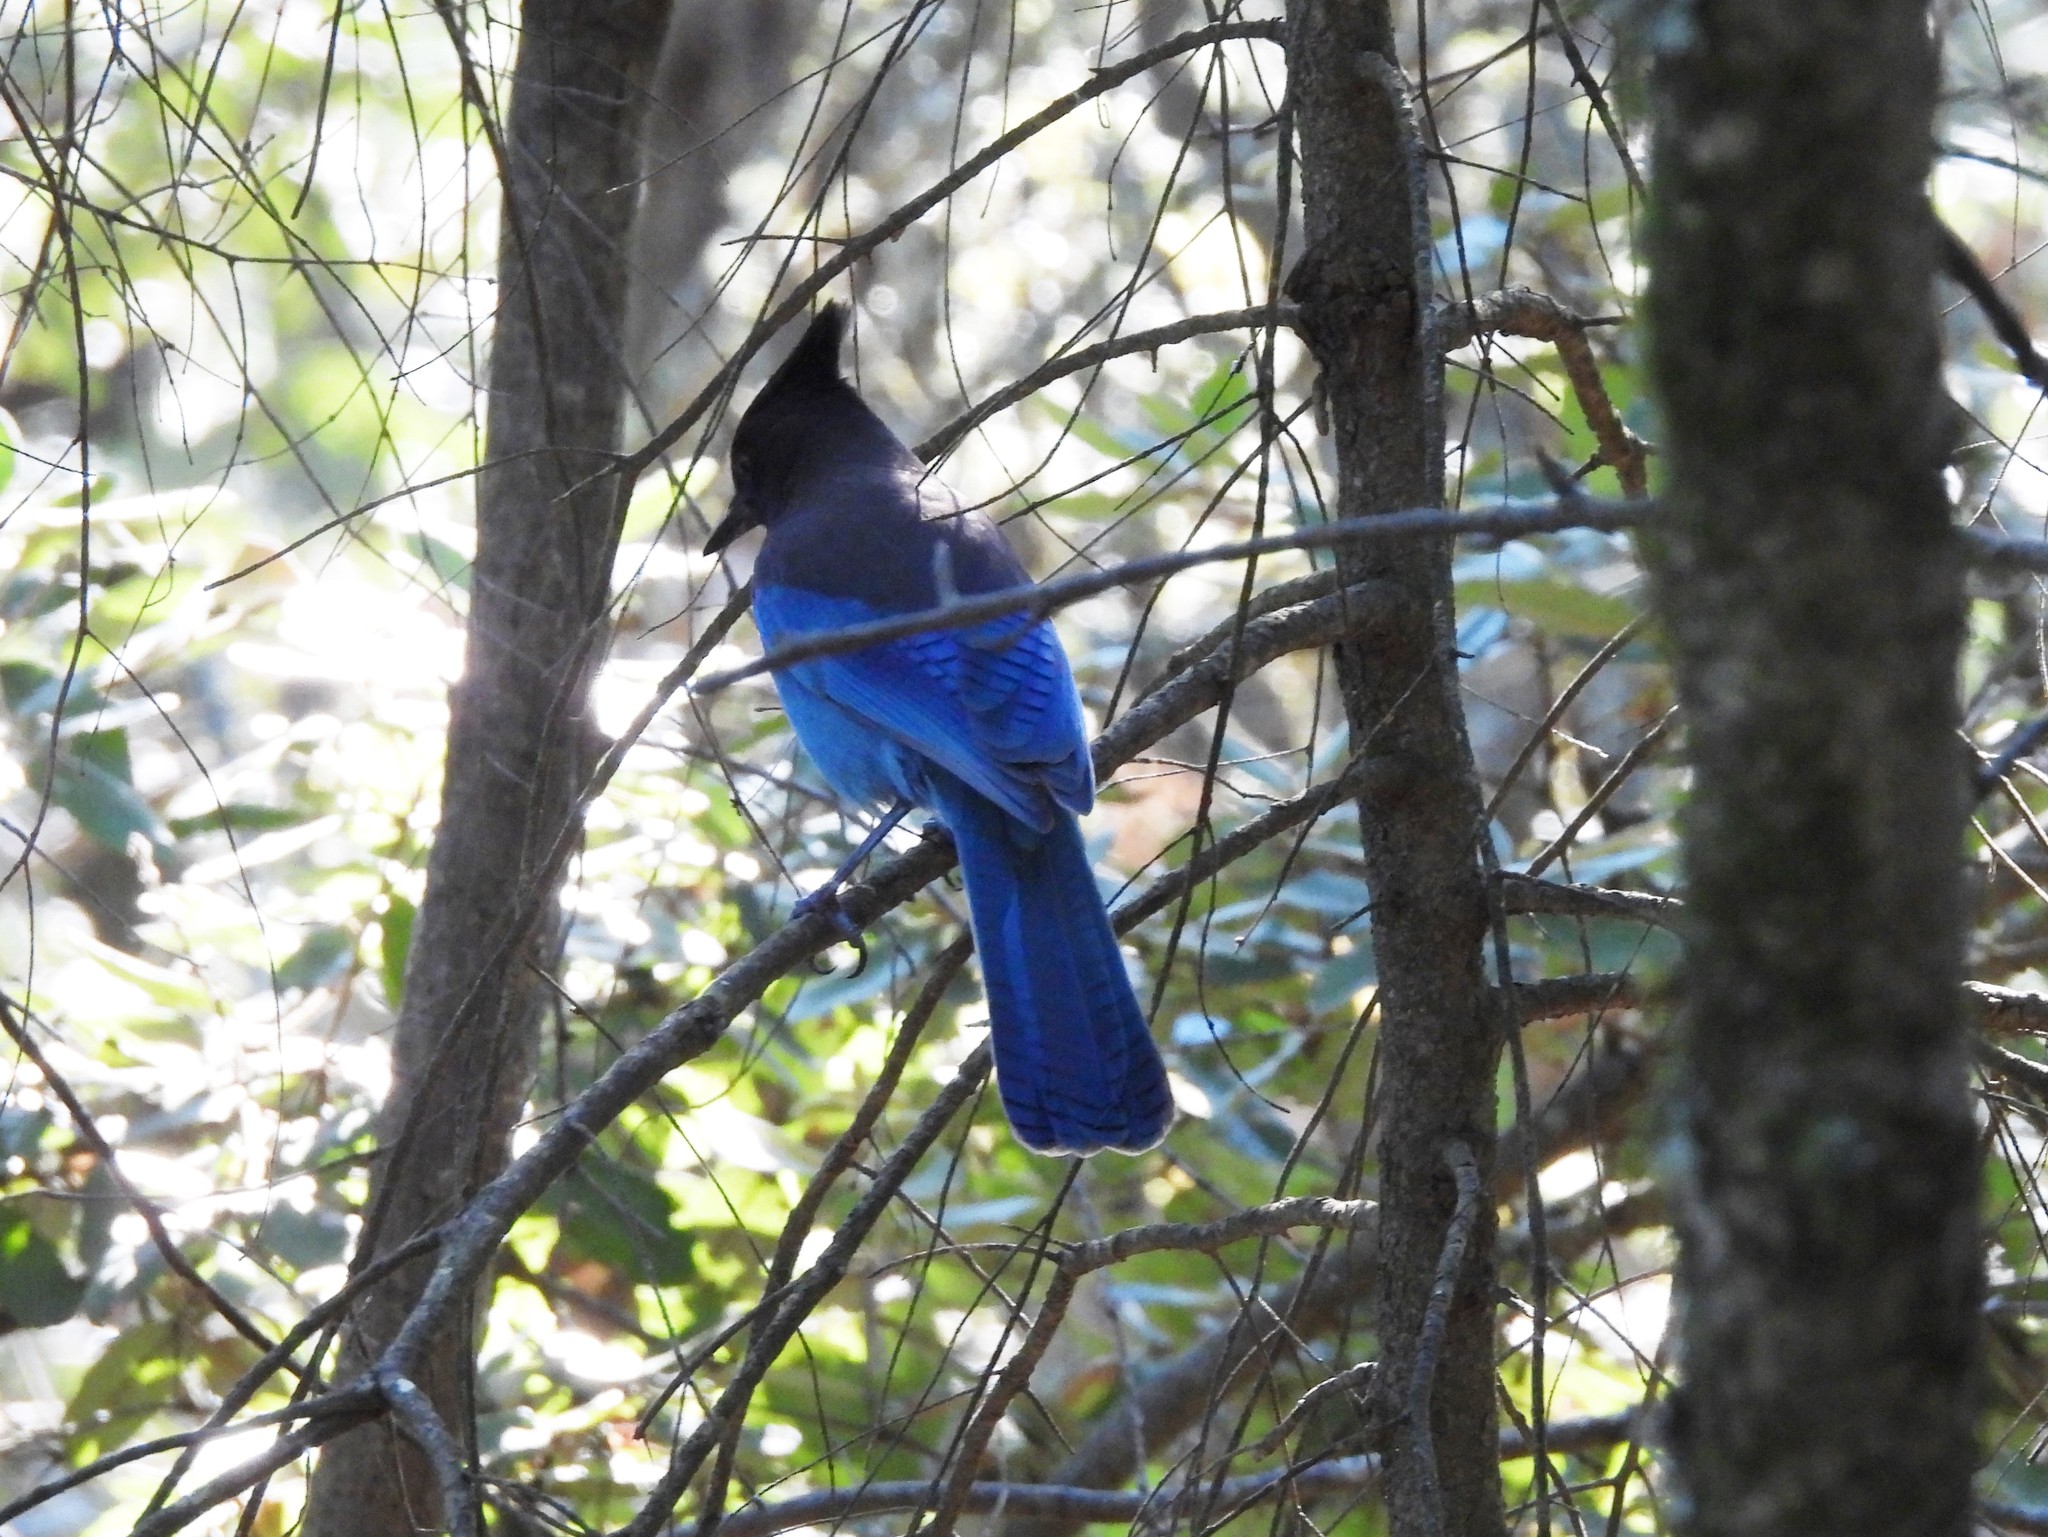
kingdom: Animalia
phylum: Chordata
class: Aves
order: Passeriformes
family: Corvidae
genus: Cyanocitta
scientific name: Cyanocitta stelleri
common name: Steller's jay
